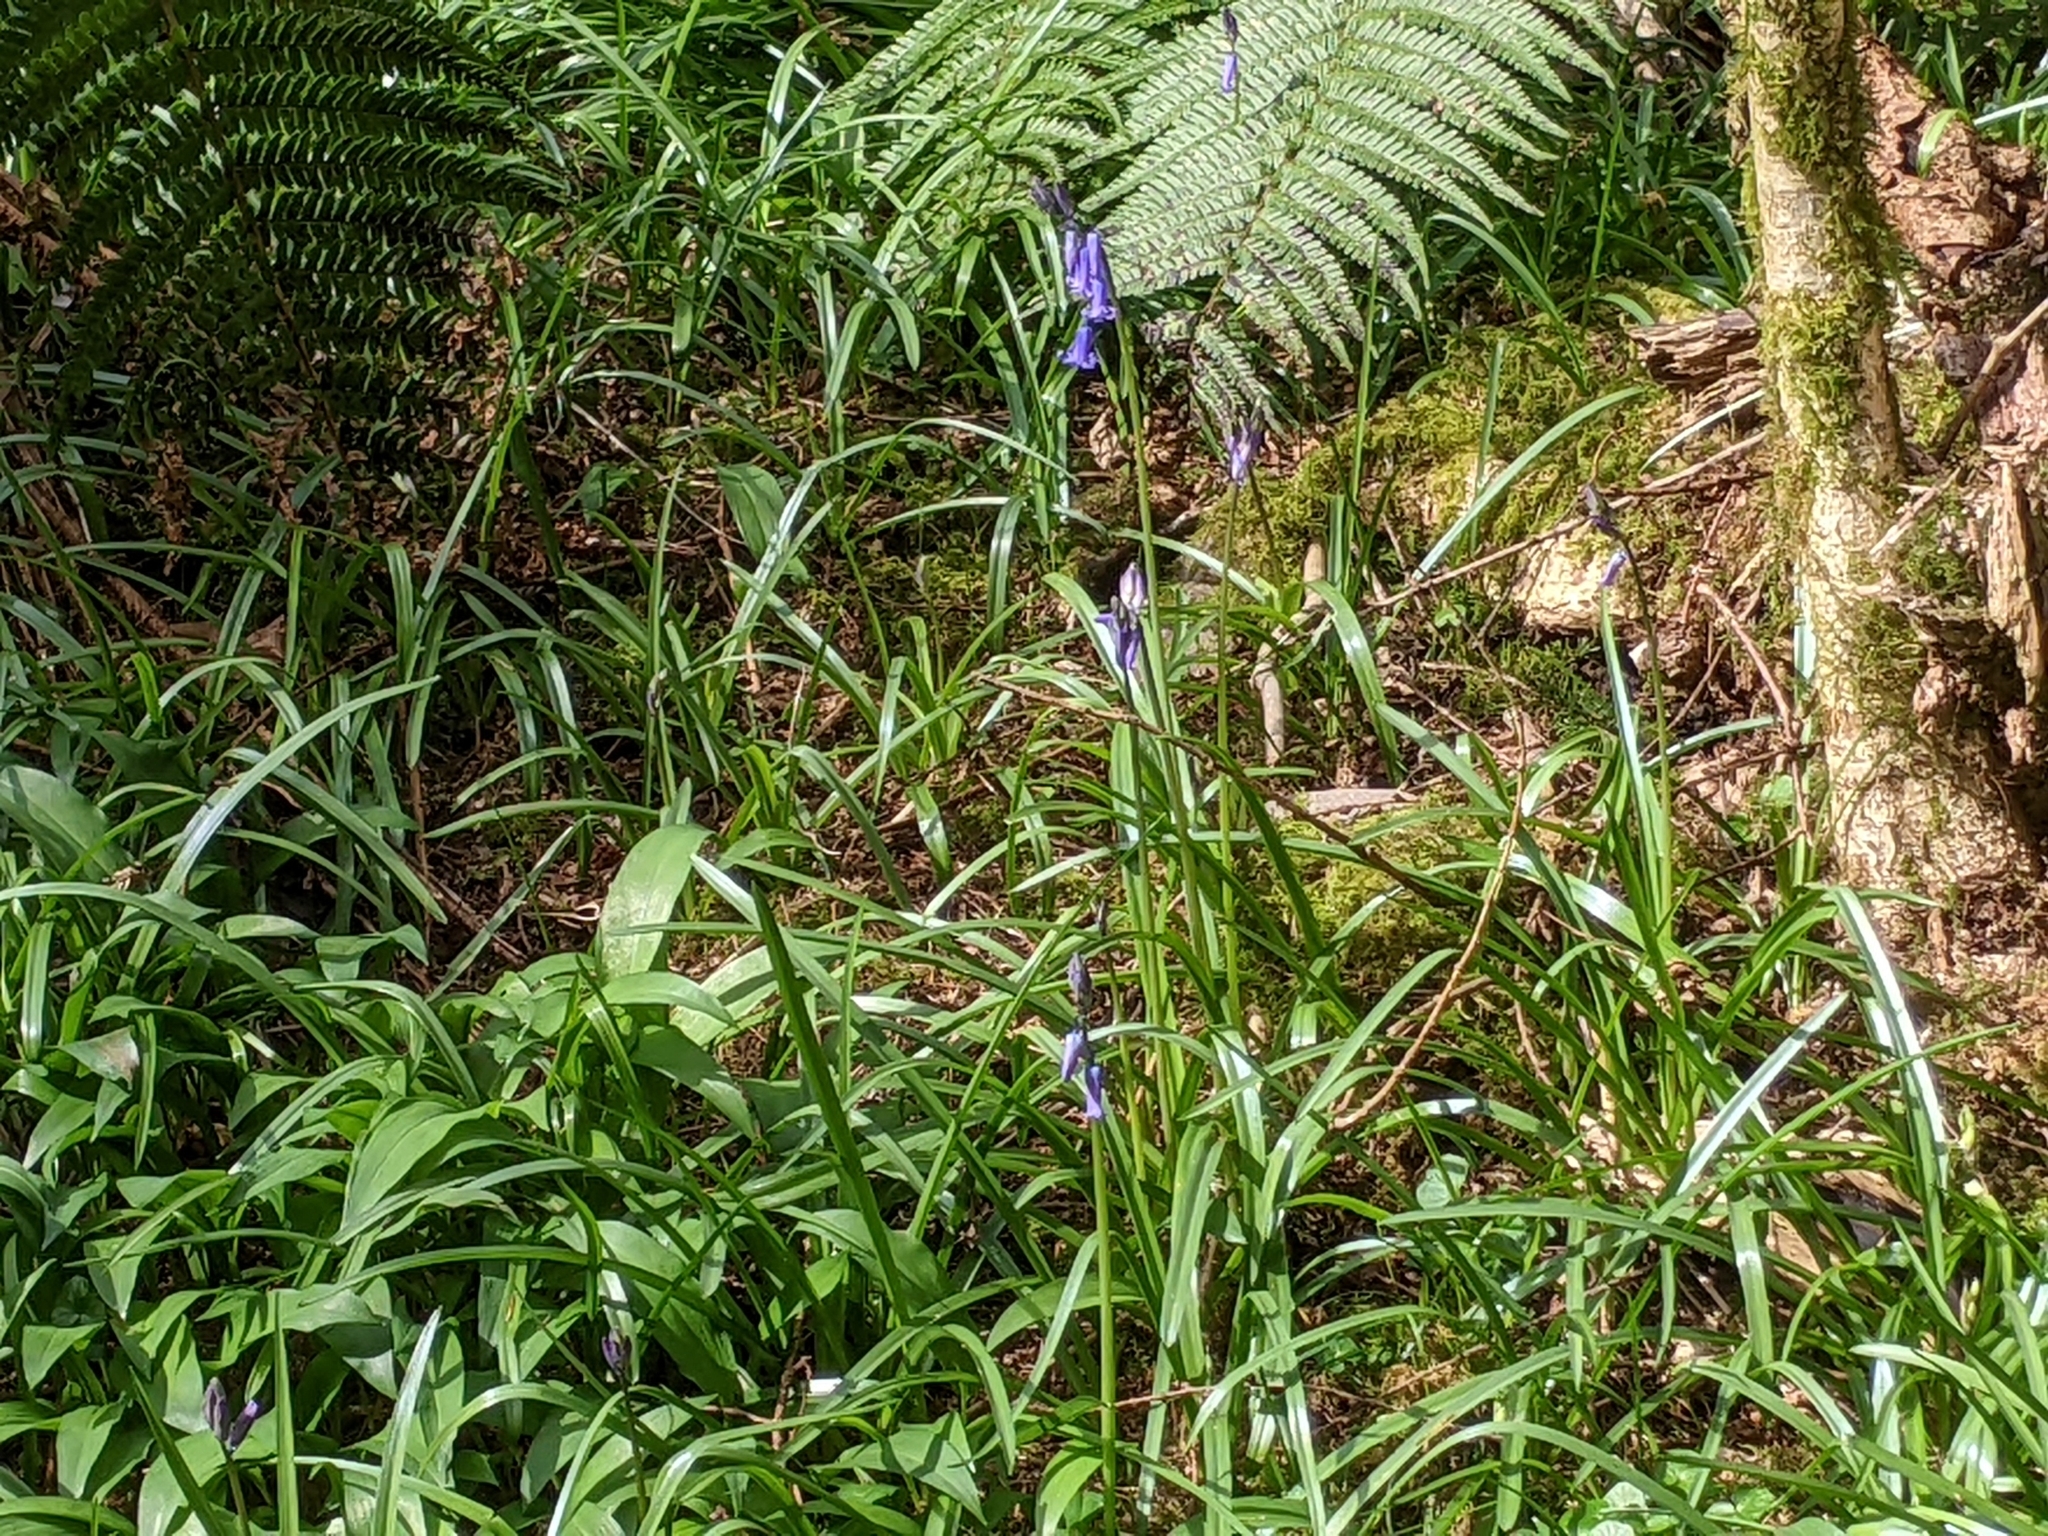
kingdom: Plantae
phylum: Tracheophyta
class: Liliopsida
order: Asparagales
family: Asparagaceae
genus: Hyacinthoides
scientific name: Hyacinthoides non-scripta
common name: Bluebell
